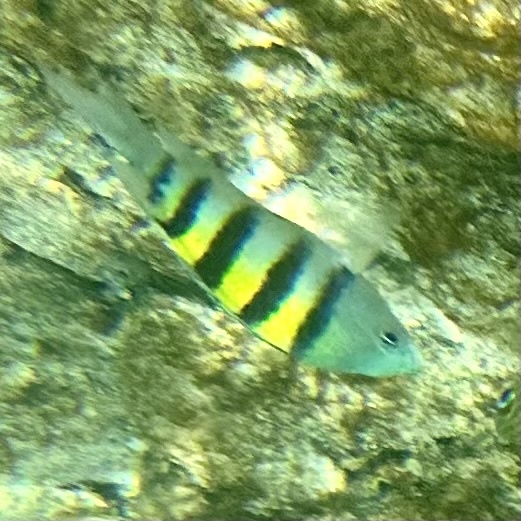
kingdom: Animalia
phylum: Chordata
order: Perciformes
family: Pomacentridae
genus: Abudefduf
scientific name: Abudefduf saxatilis
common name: Sergeant major
